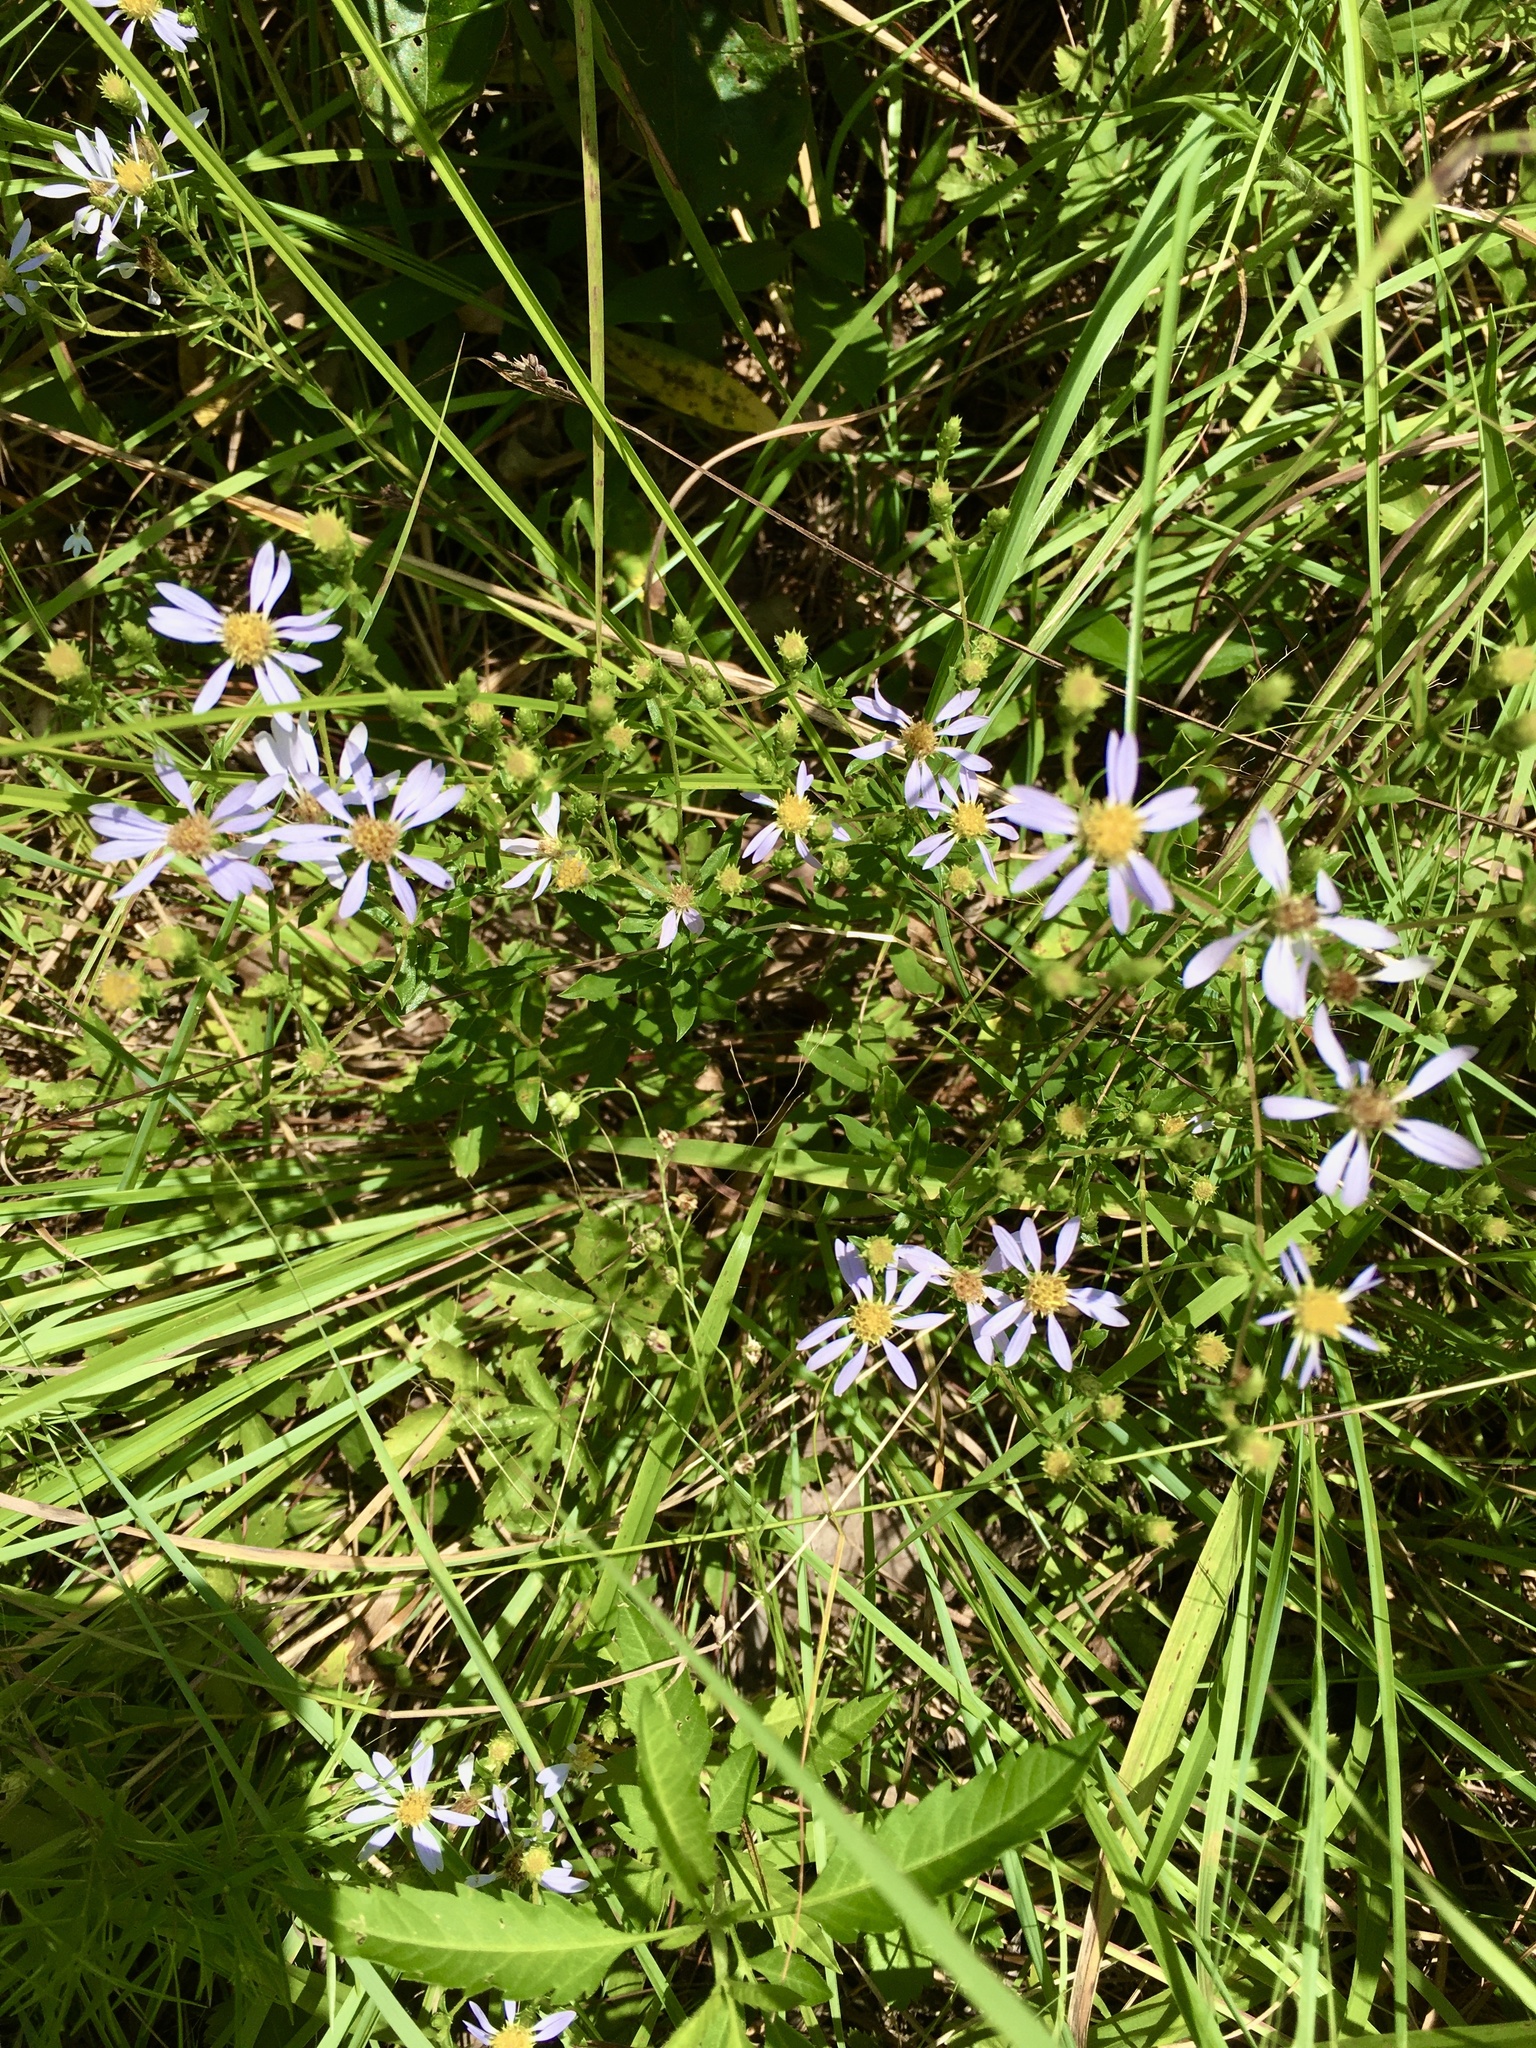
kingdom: Plantae
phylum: Tracheophyta
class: Magnoliopsida
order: Asterales
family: Asteraceae
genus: Eurybia
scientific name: Eurybia compacta
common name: Slender aster
